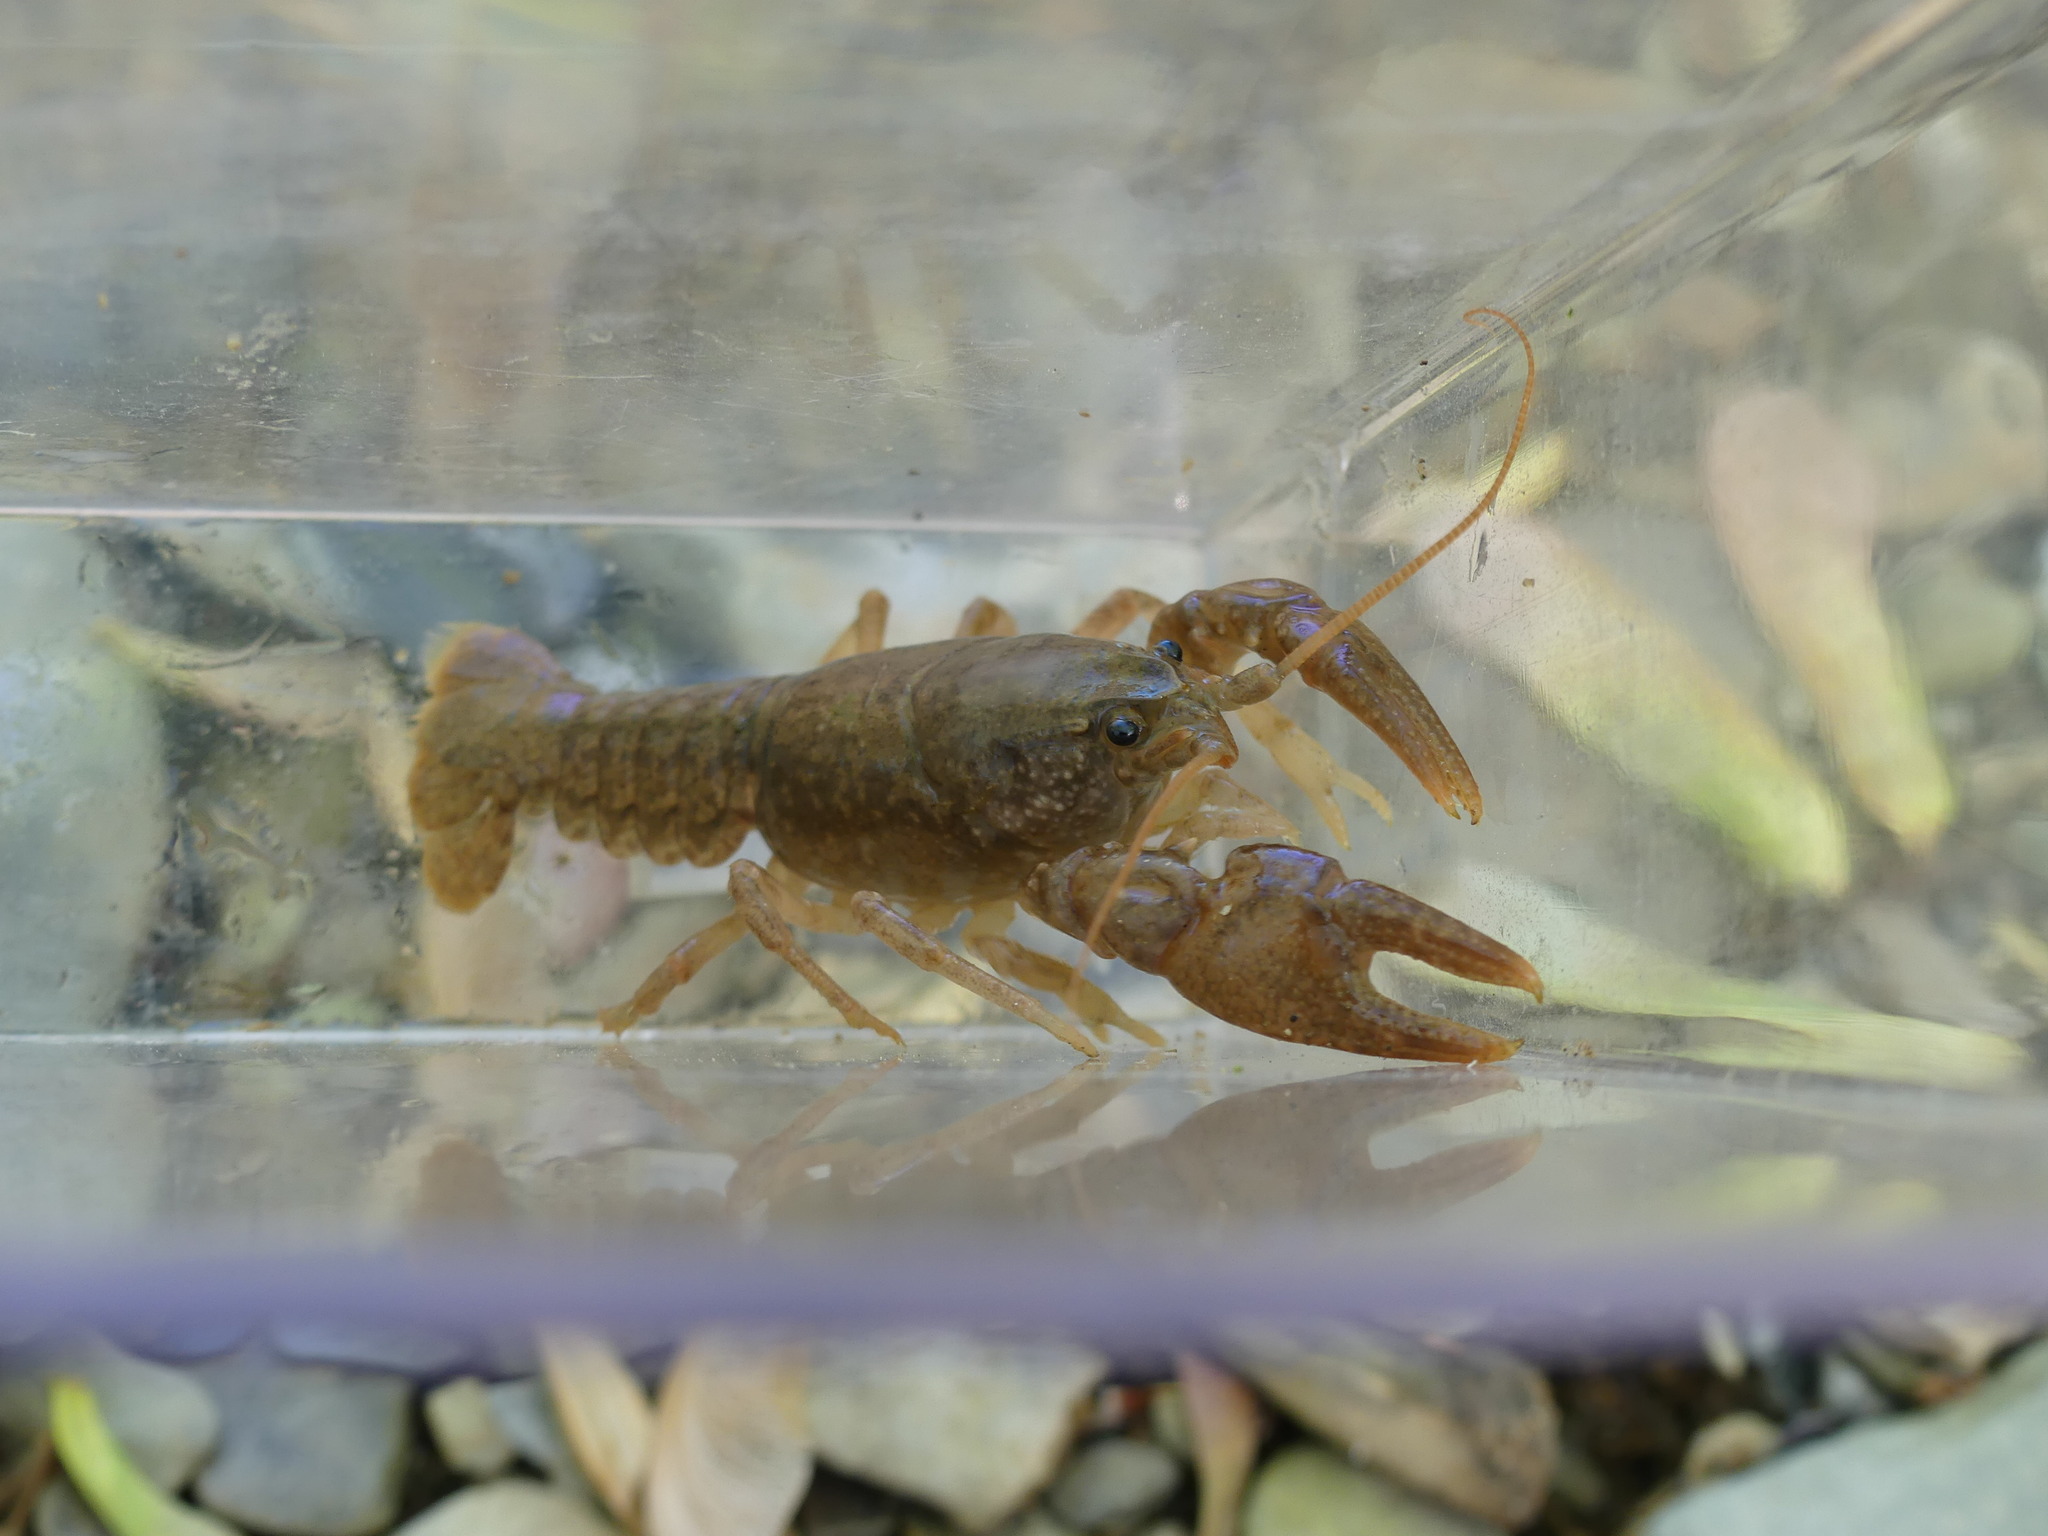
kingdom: Animalia
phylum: Arthropoda
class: Malacostraca
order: Decapoda
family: Cambaridae
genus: Cambarus
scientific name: Cambarus bartonii
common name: Appalachian brook crayfish
